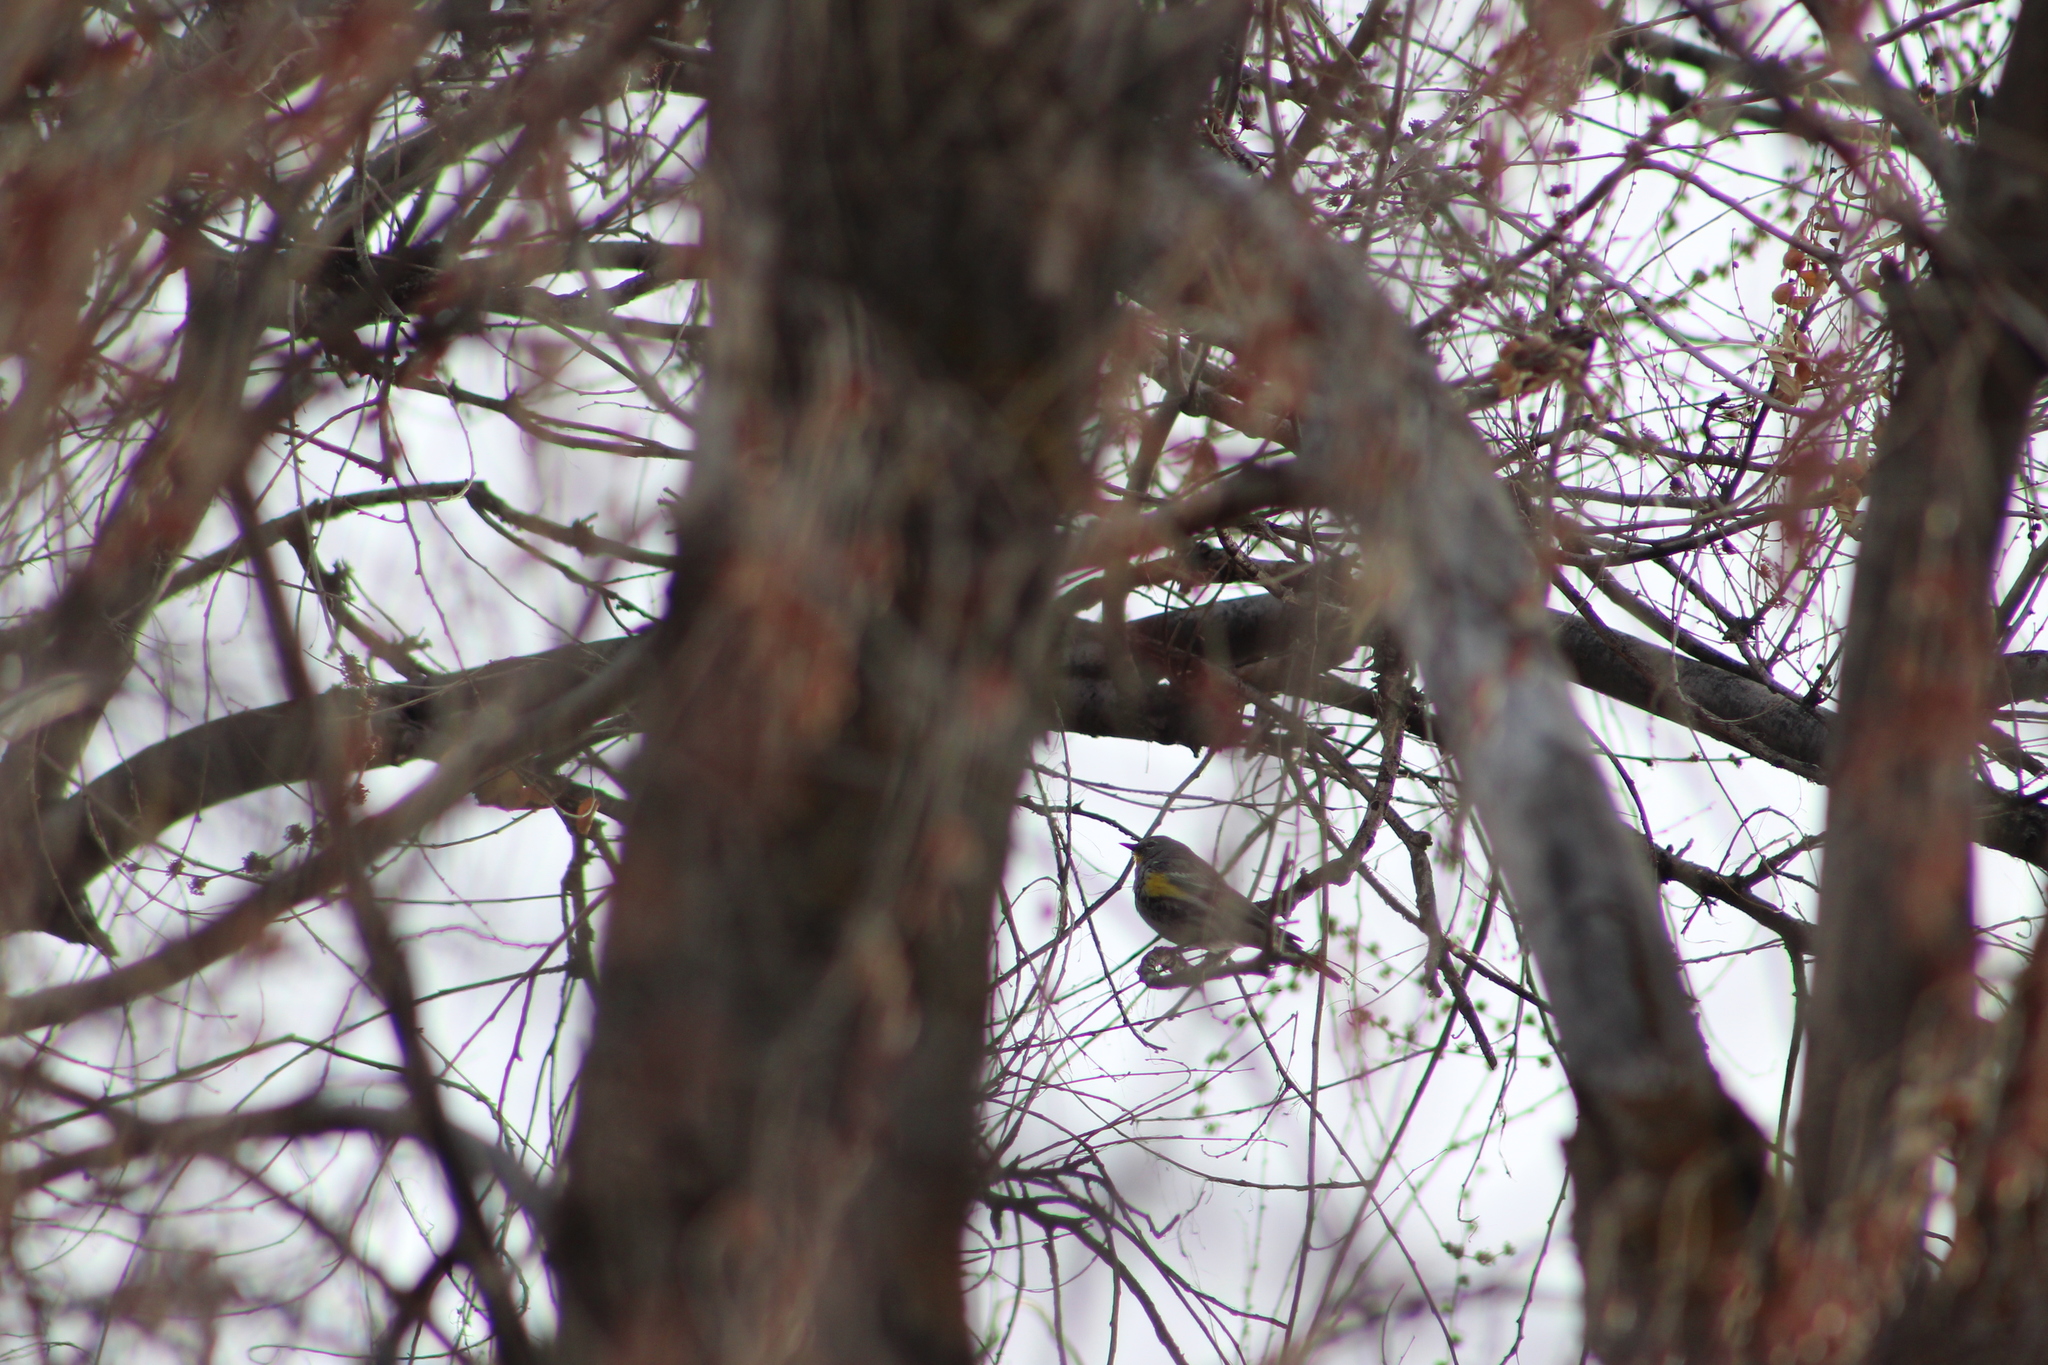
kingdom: Animalia
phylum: Chordata
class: Aves
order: Passeriformes
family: Parulidae
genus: Setophaga
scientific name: Setophaga coronata
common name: Myrtle warbler
